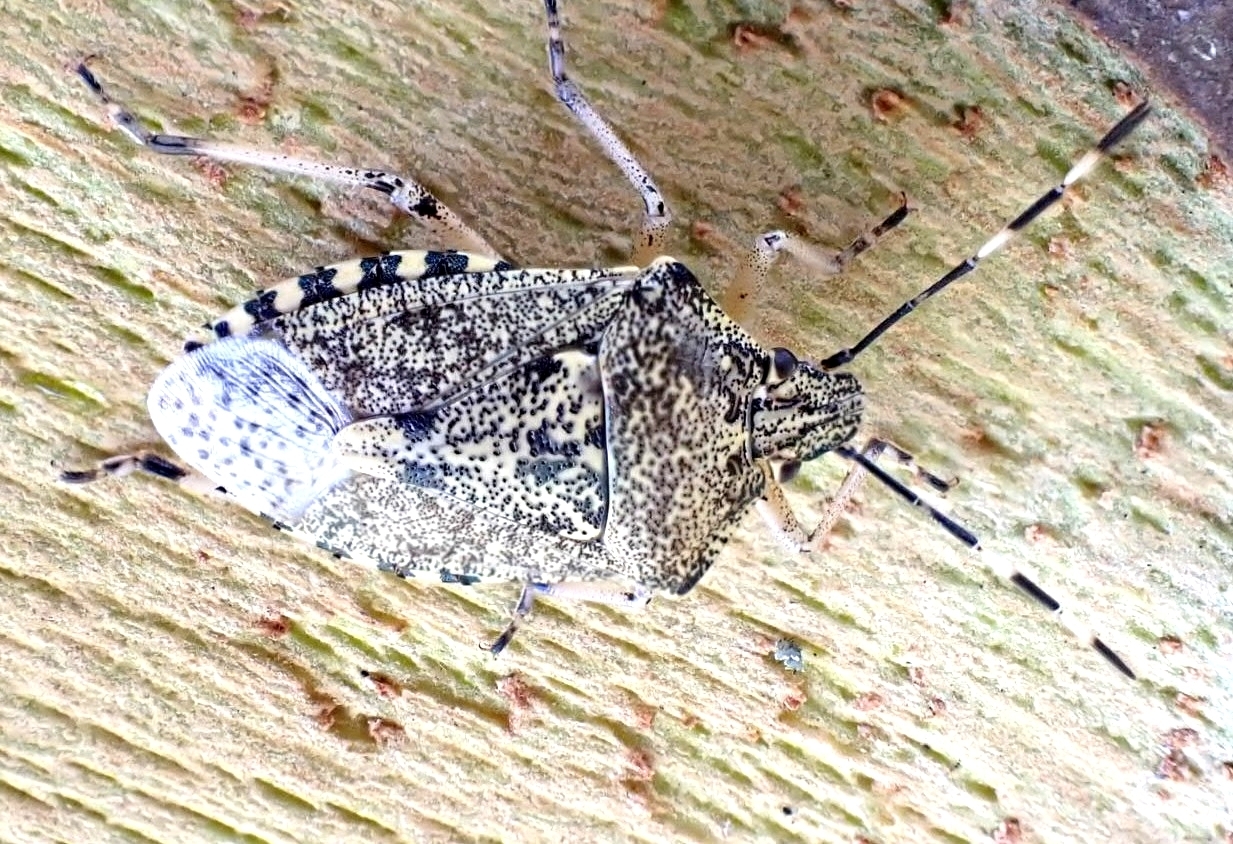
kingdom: Animalia
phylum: Arthropoda
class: Insecta
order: Hemiptera
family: Pentatomidae
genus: Rhaphigaster
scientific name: Rhaphigaster nebulosa
